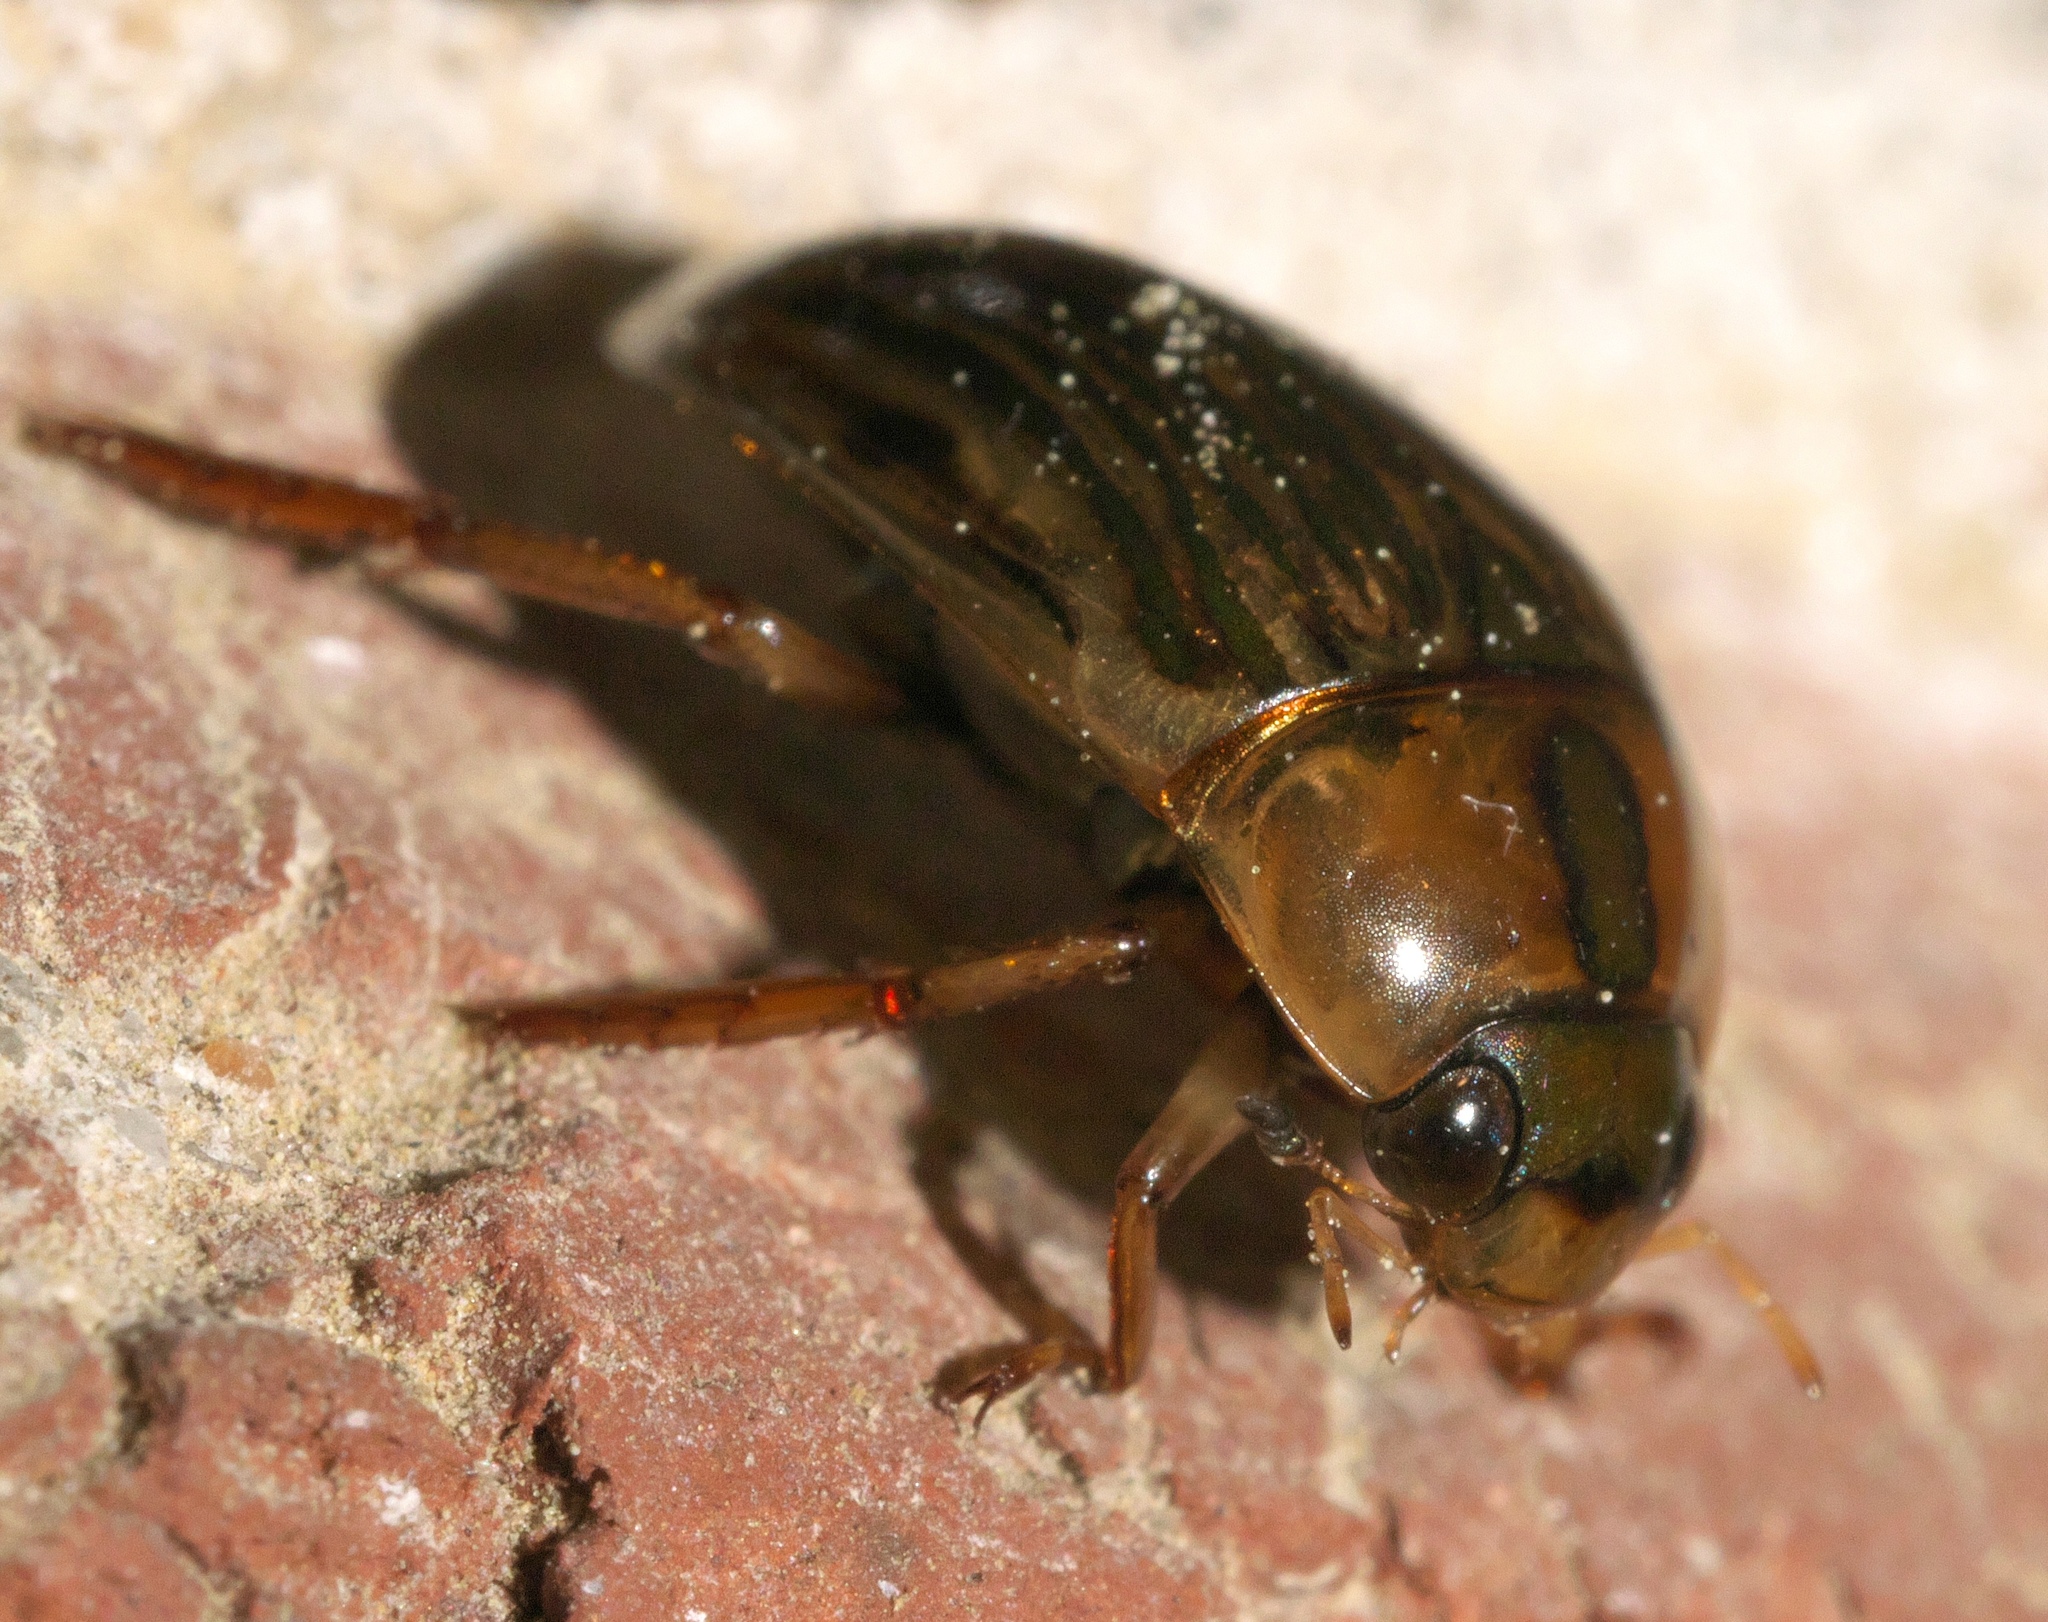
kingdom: Animalia
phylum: Arthropoda
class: Insecta
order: Coleoptera
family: Hydrophilidae
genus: Tropisternus
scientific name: Tropisternus collaris
